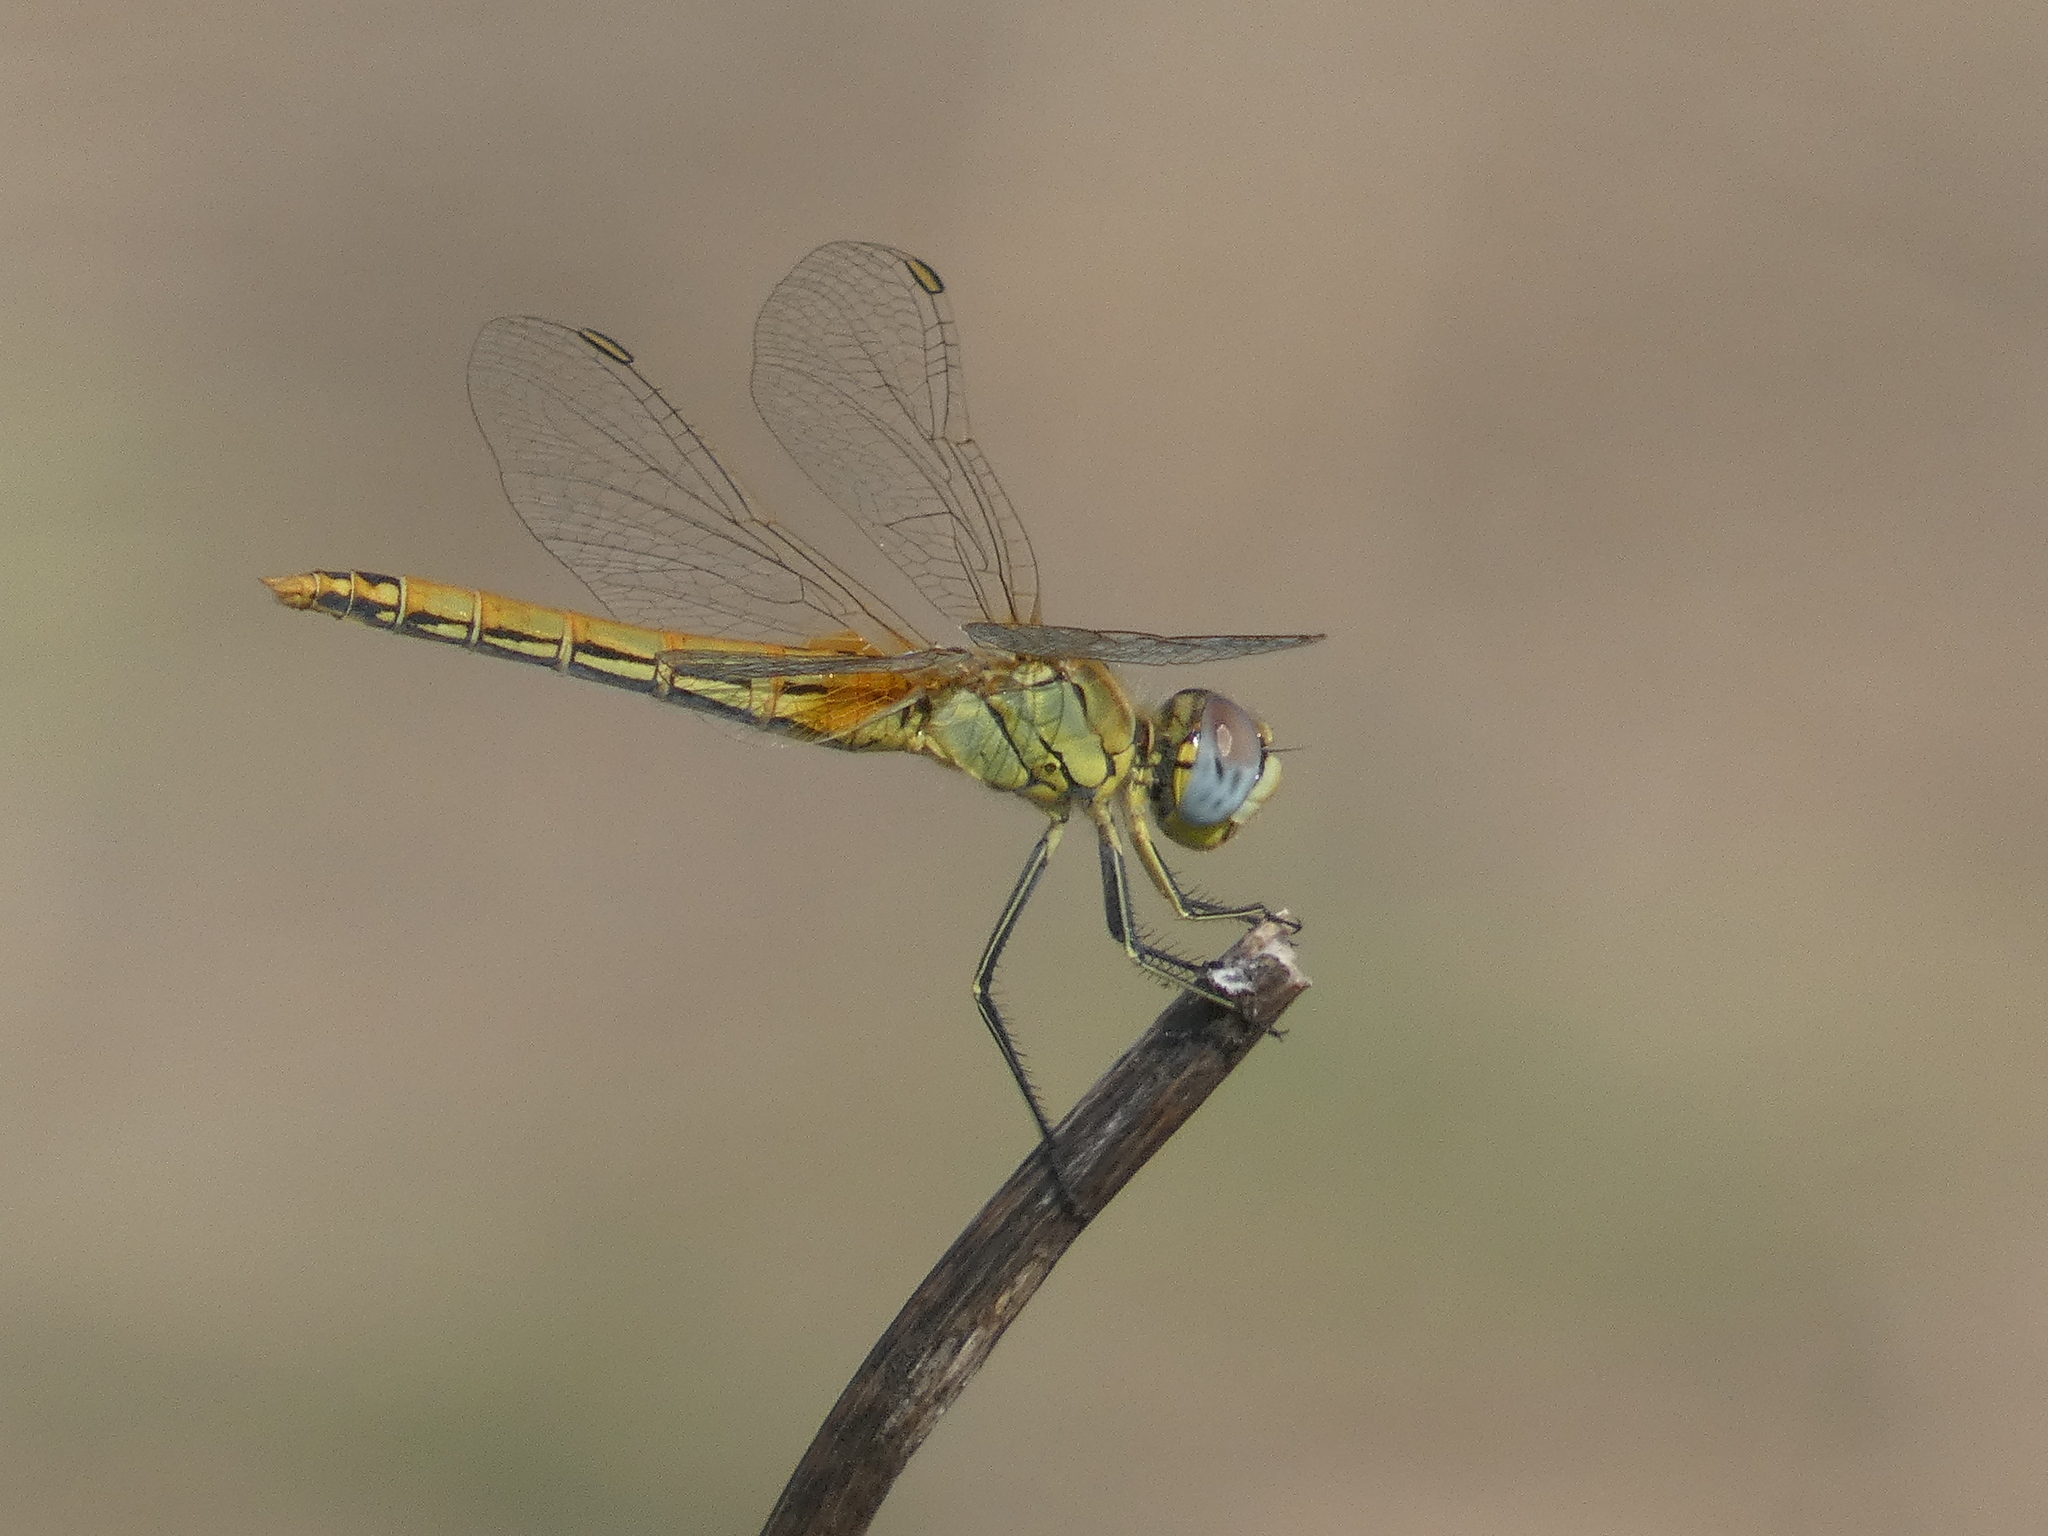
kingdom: Animalia
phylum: Arthropoda
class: Insecta
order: Odonata
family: Libellulidae
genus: Sympetrum
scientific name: Sympetrum fonscolombii
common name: Red-veined darter
